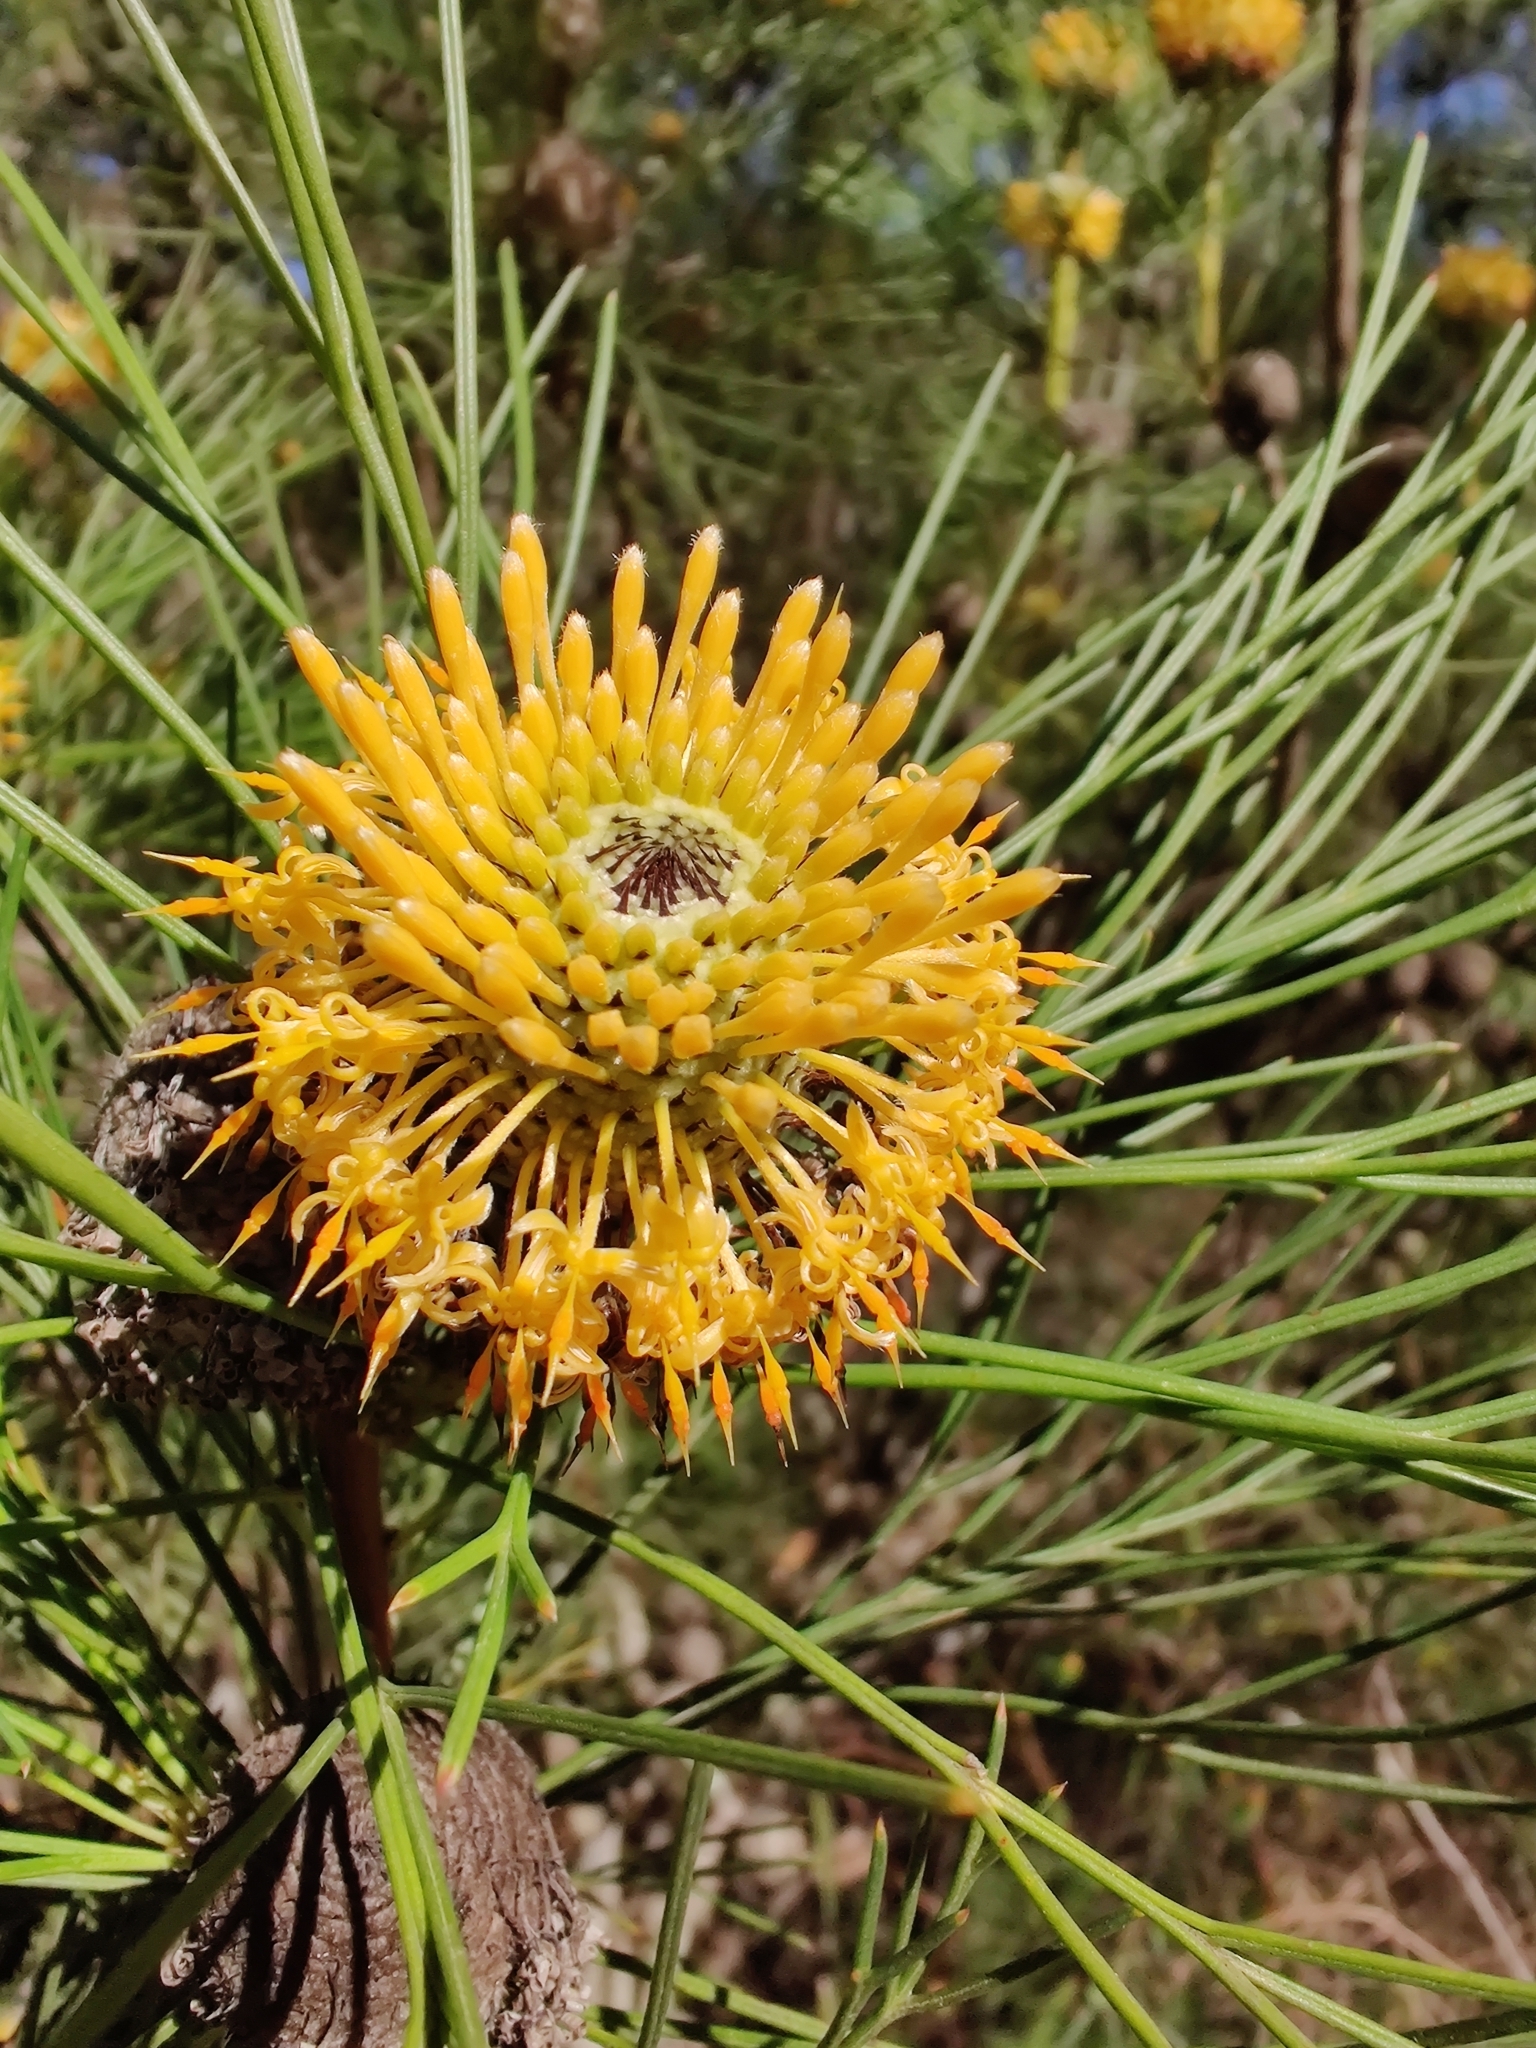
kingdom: Plantae
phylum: Tracheophyta
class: Magnoliopsida
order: Proteales
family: Proteaceae
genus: Isopogon
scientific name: Isopogon anethifolius
